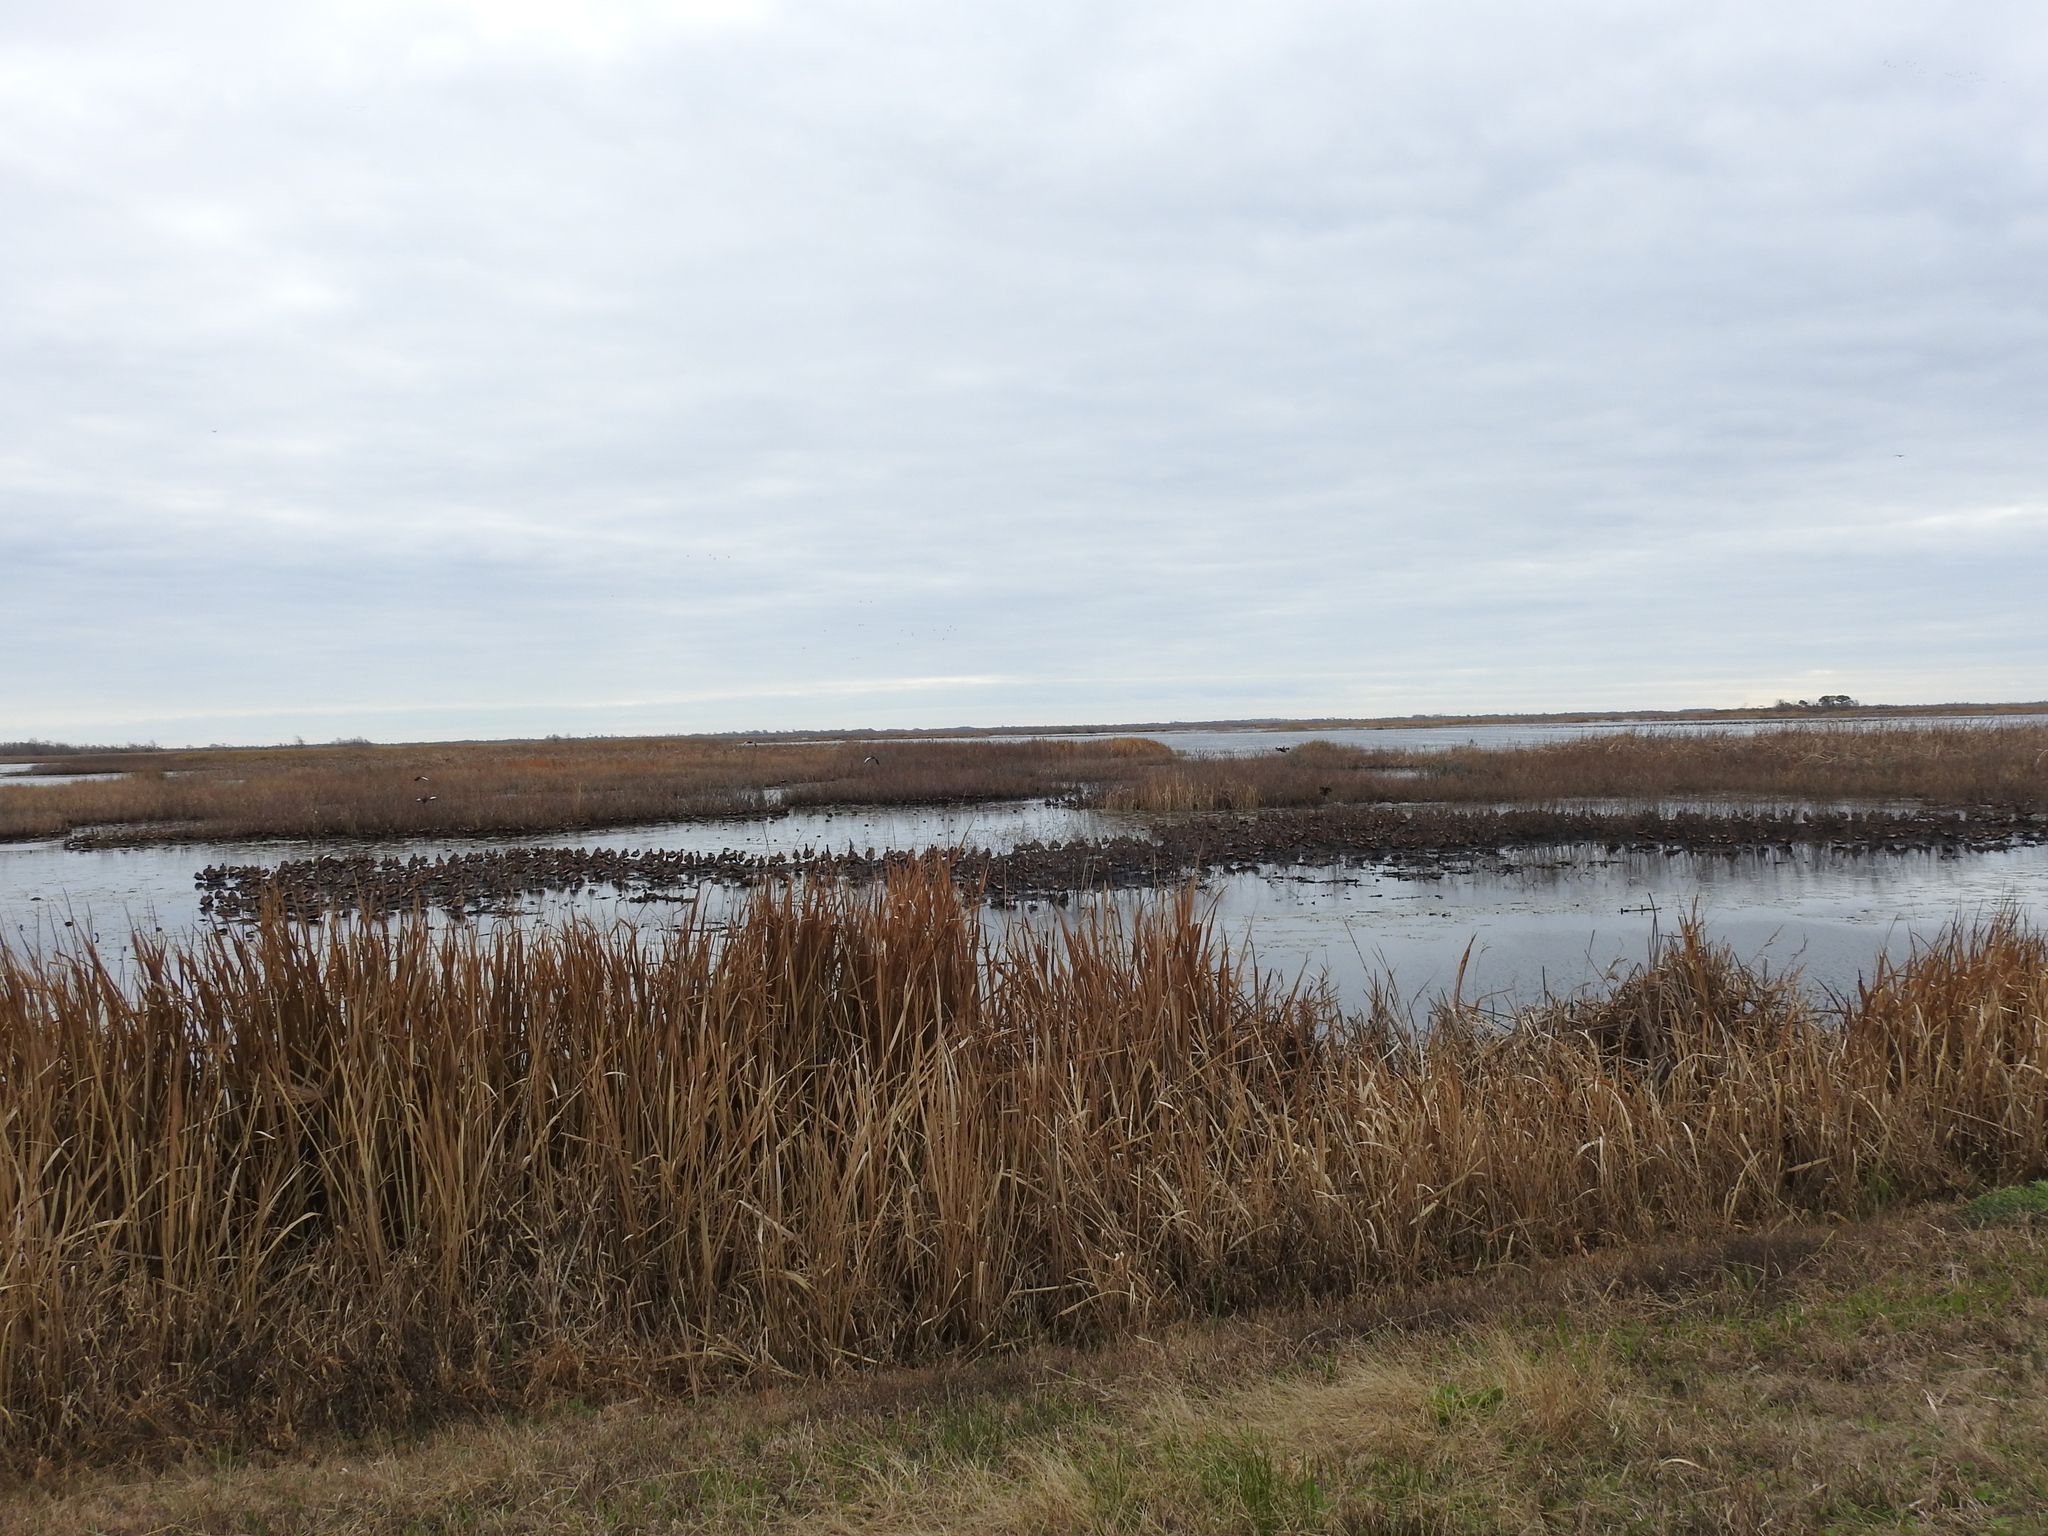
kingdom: Animalia
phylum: Chordata
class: Aves
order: Anseriformes
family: Anatidae
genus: Dendrocygna
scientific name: Dendrocygna autumnalis
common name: Black-bellied whistling duck
